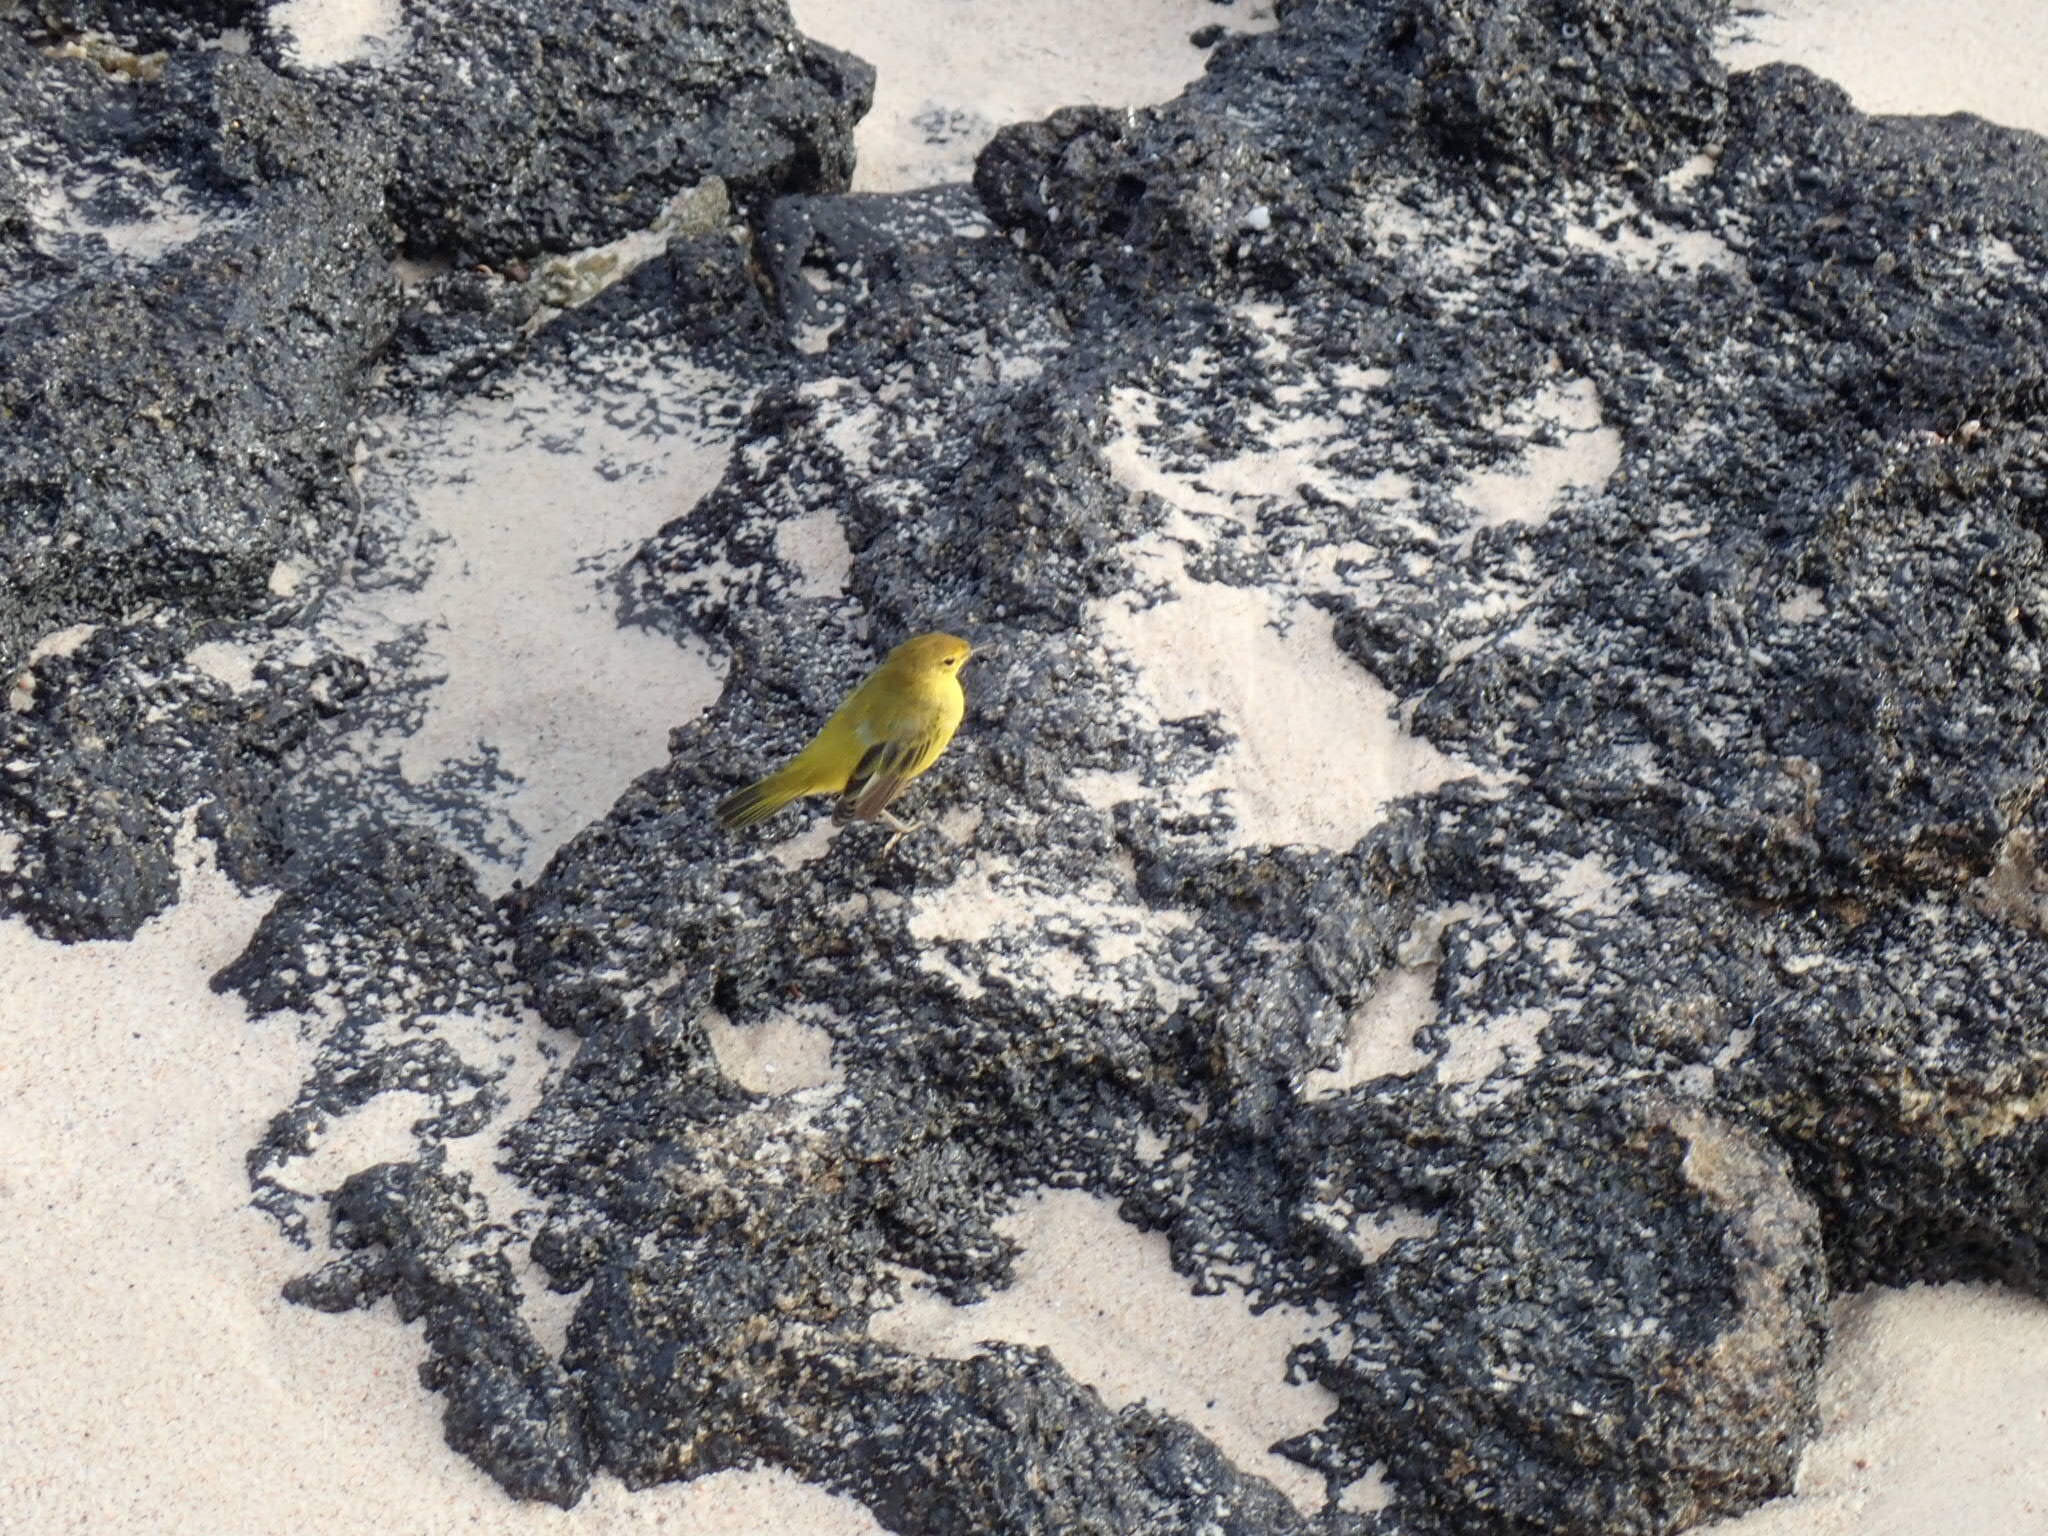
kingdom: Animalia
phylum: Chordata
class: Aves
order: Passeriformes
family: Parulidae
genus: Setophaga
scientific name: Setophaga petechia
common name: Yellow warbler
